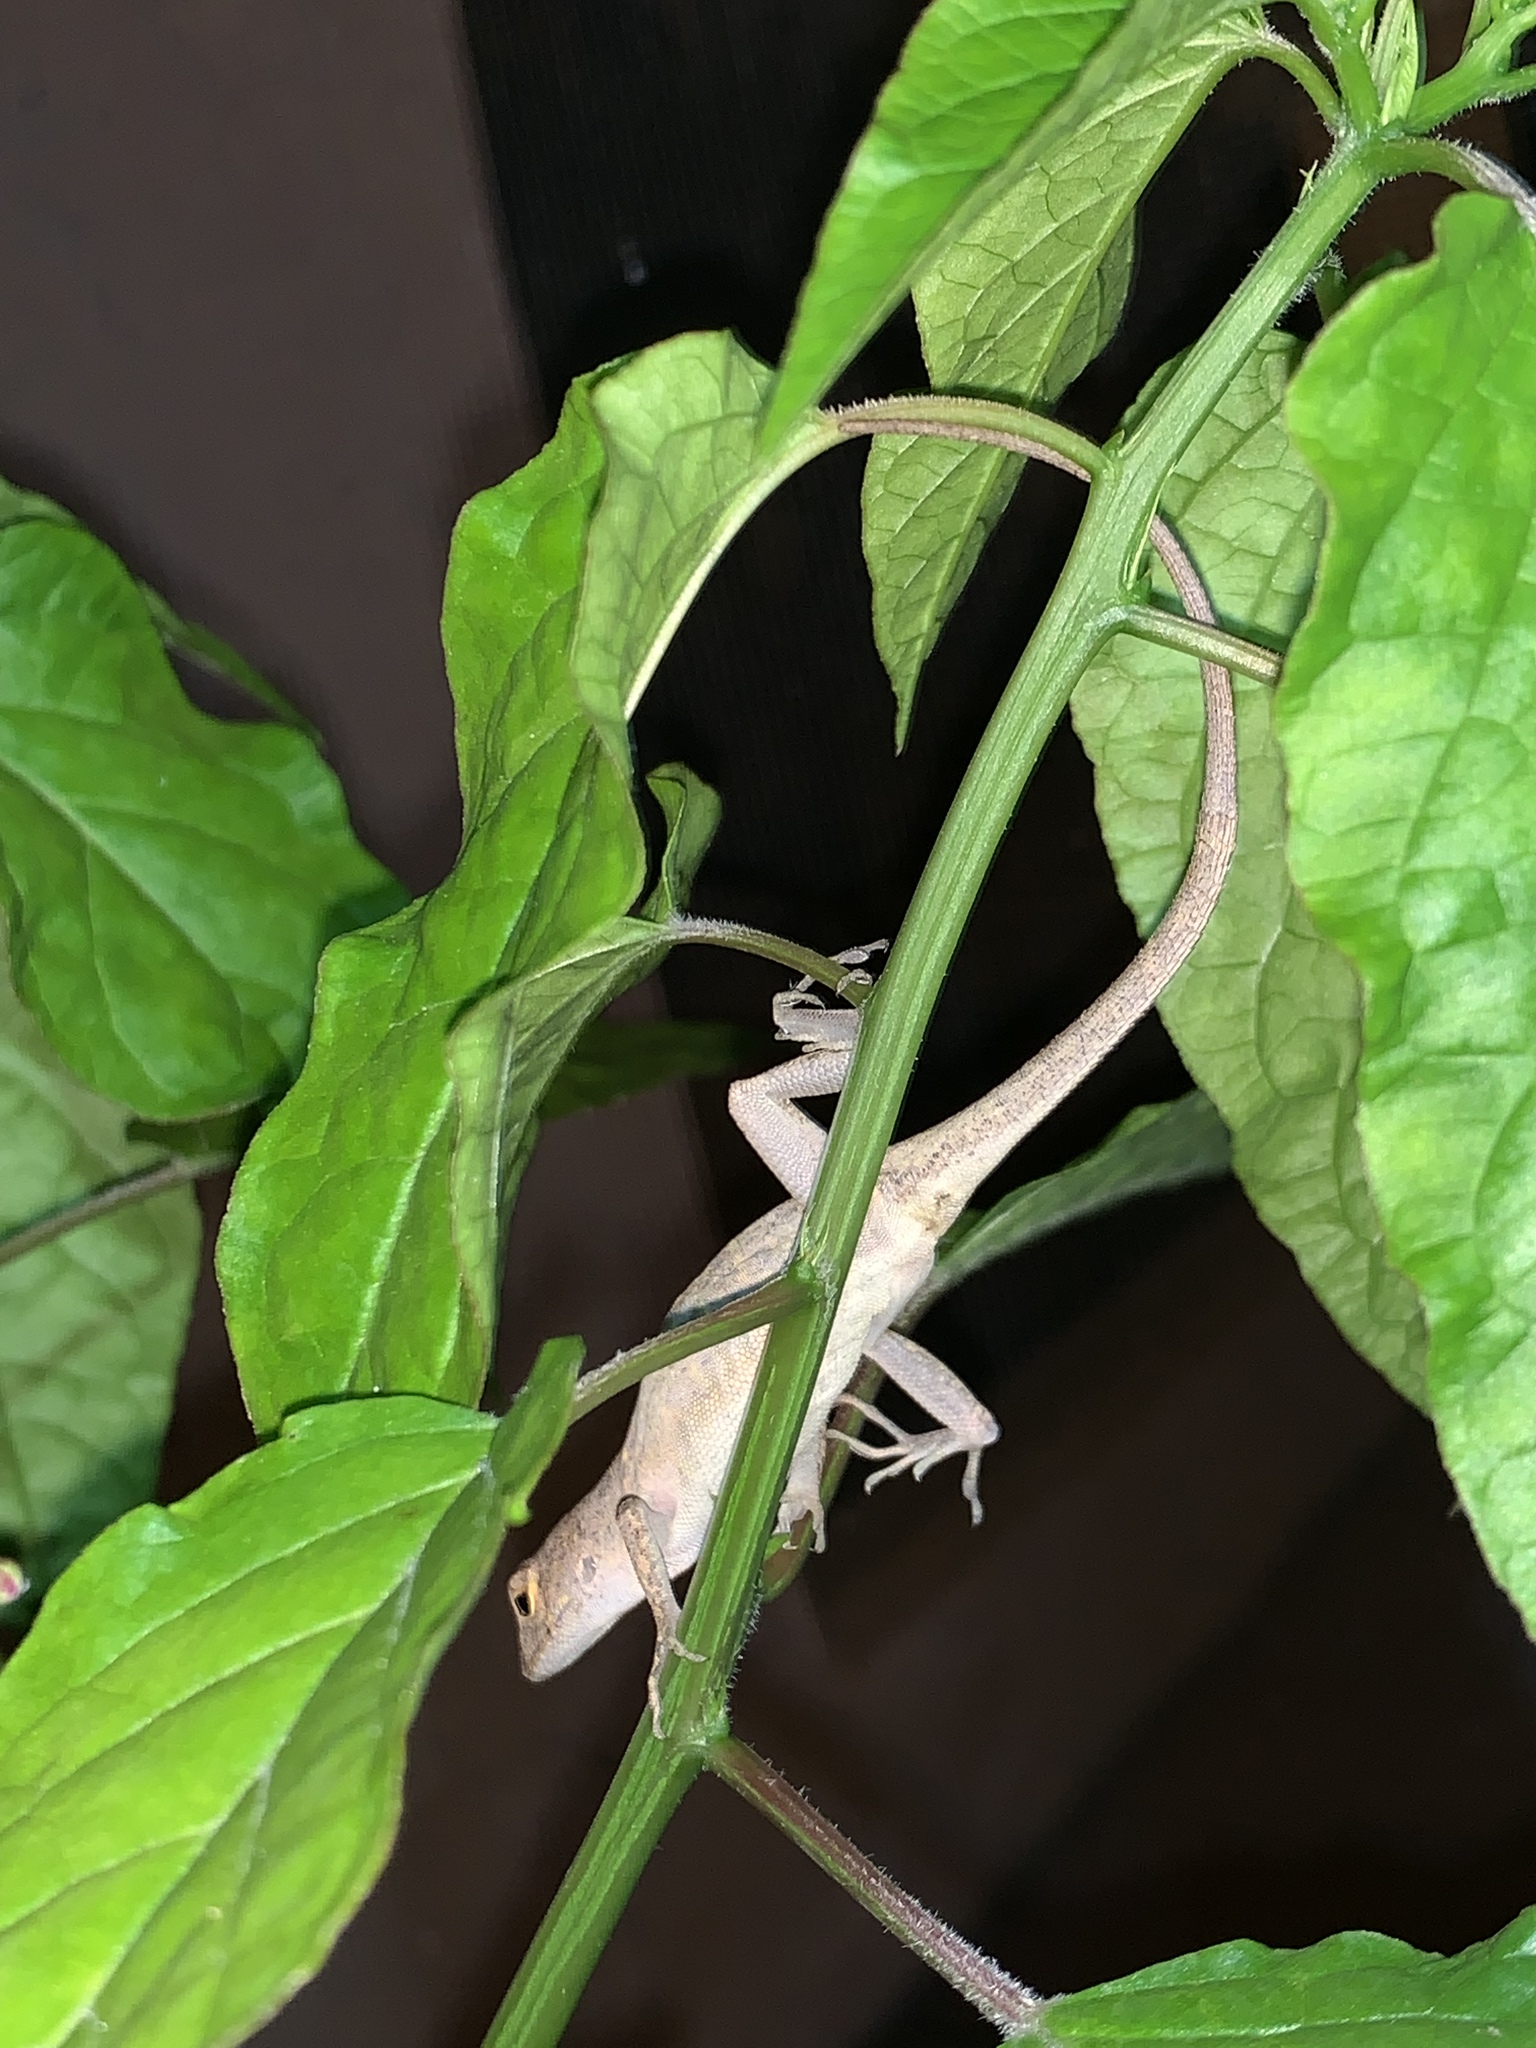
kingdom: Animalia
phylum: Chordata
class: Squamata
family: Dactyloidae
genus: Anolis
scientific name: Anolis sagrei
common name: Brown anole
